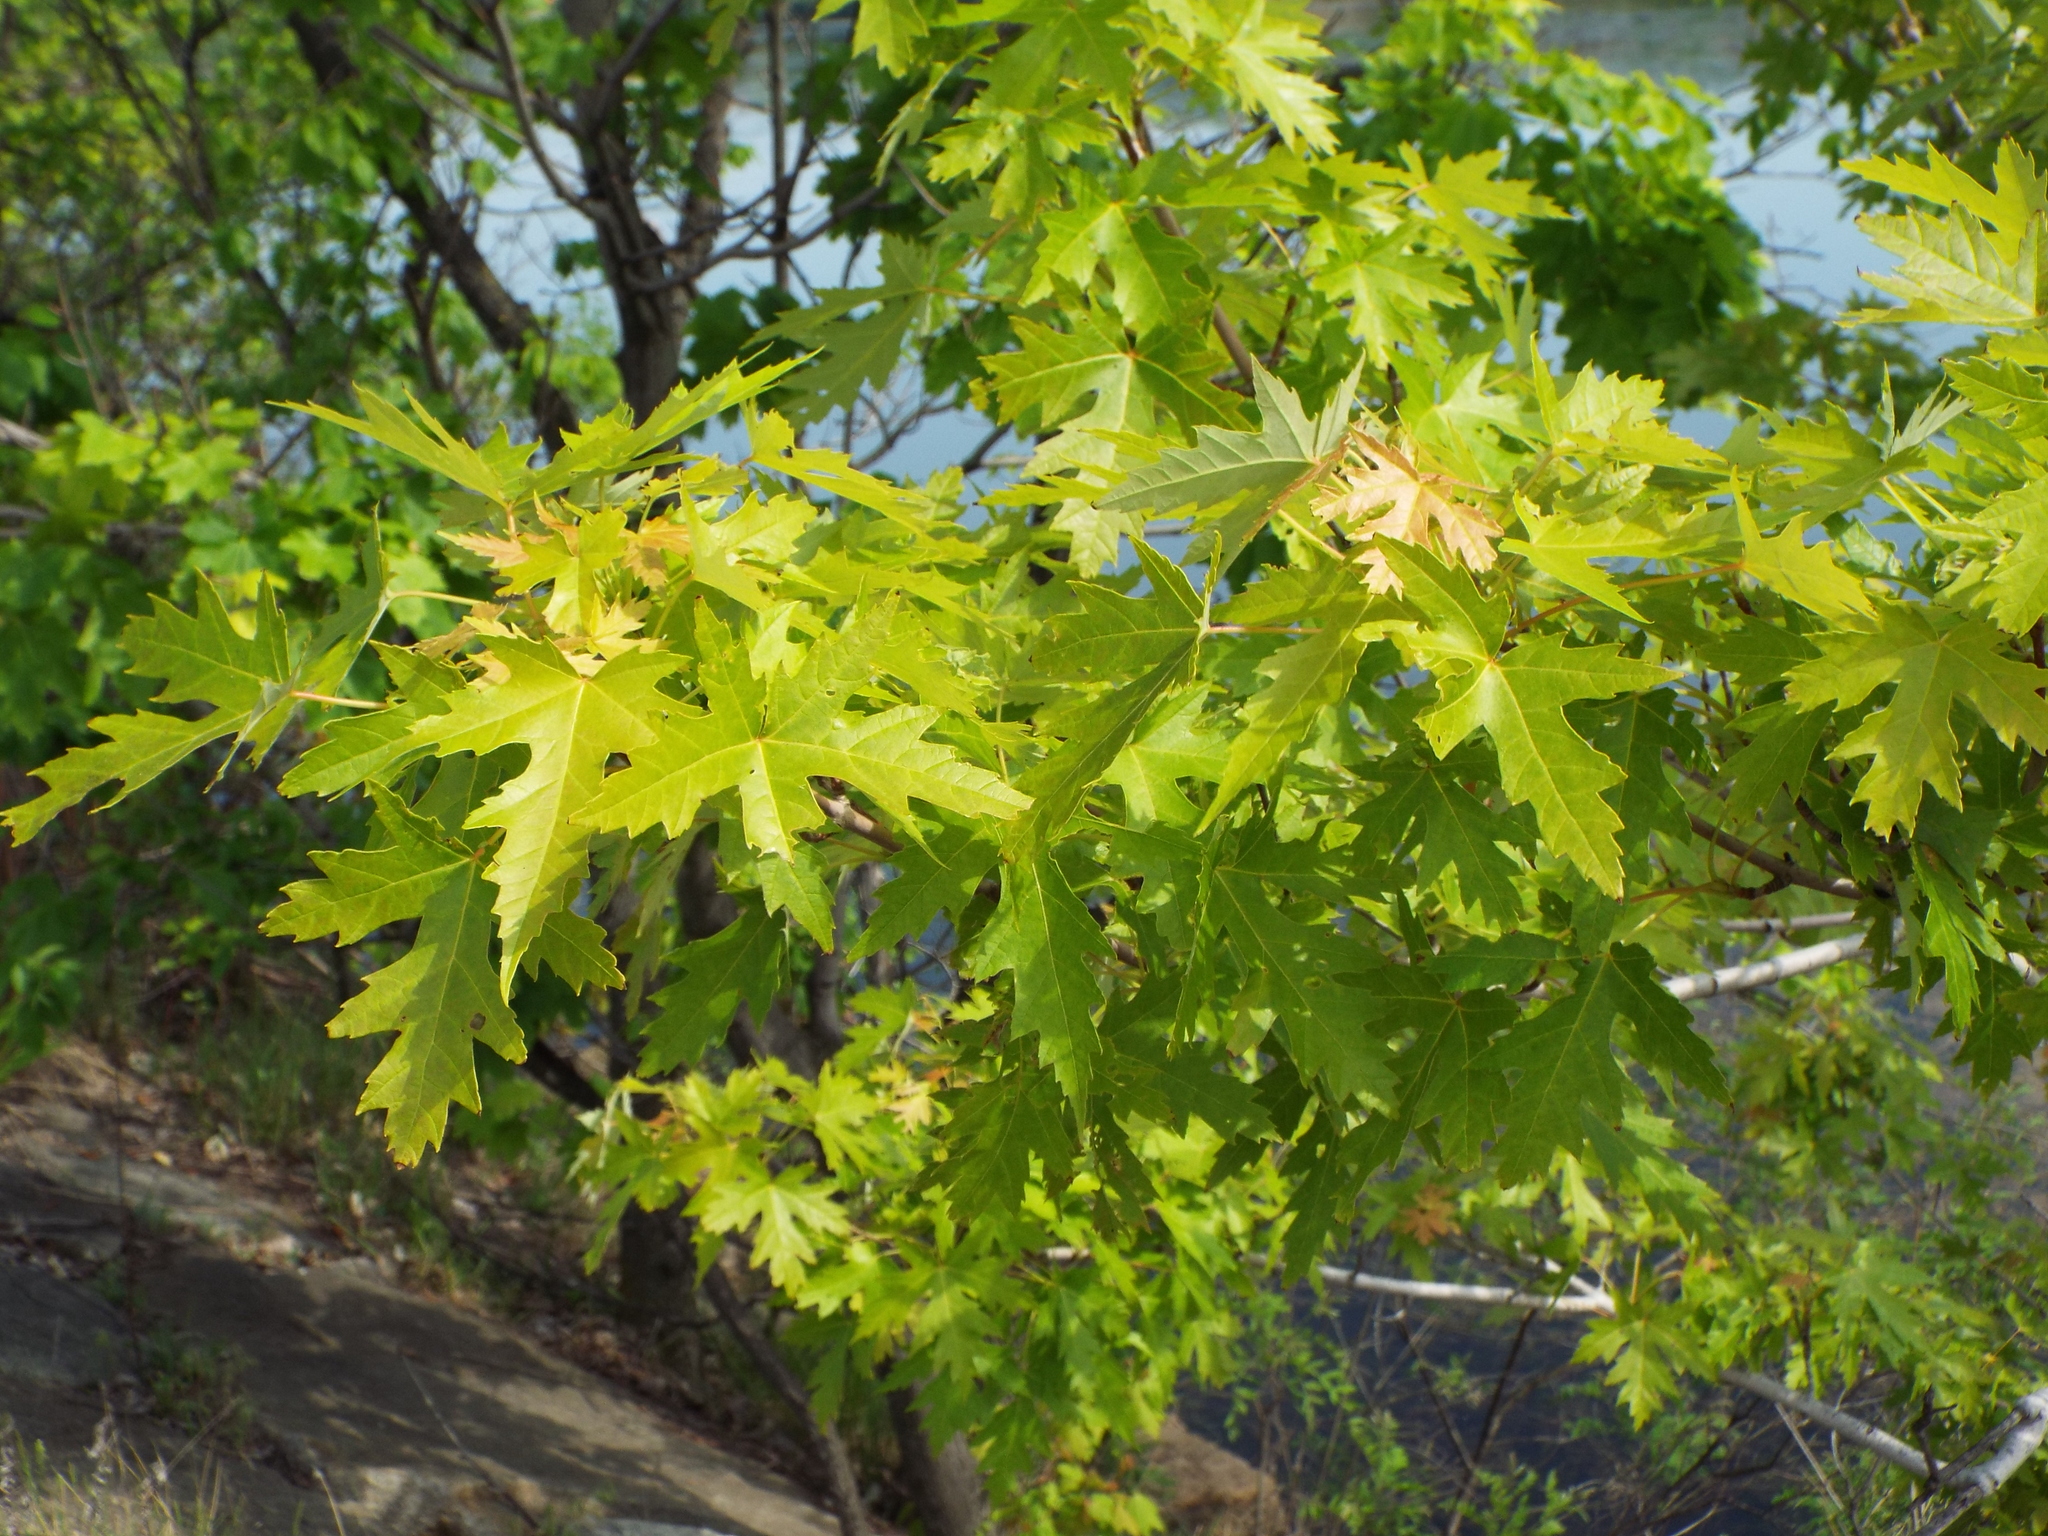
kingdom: Plantae
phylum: Tracheophyta
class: Magnoliopsida
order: Sapindales
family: Sapindaceae
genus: Acer
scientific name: Acer saccharinum
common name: Silver maple
